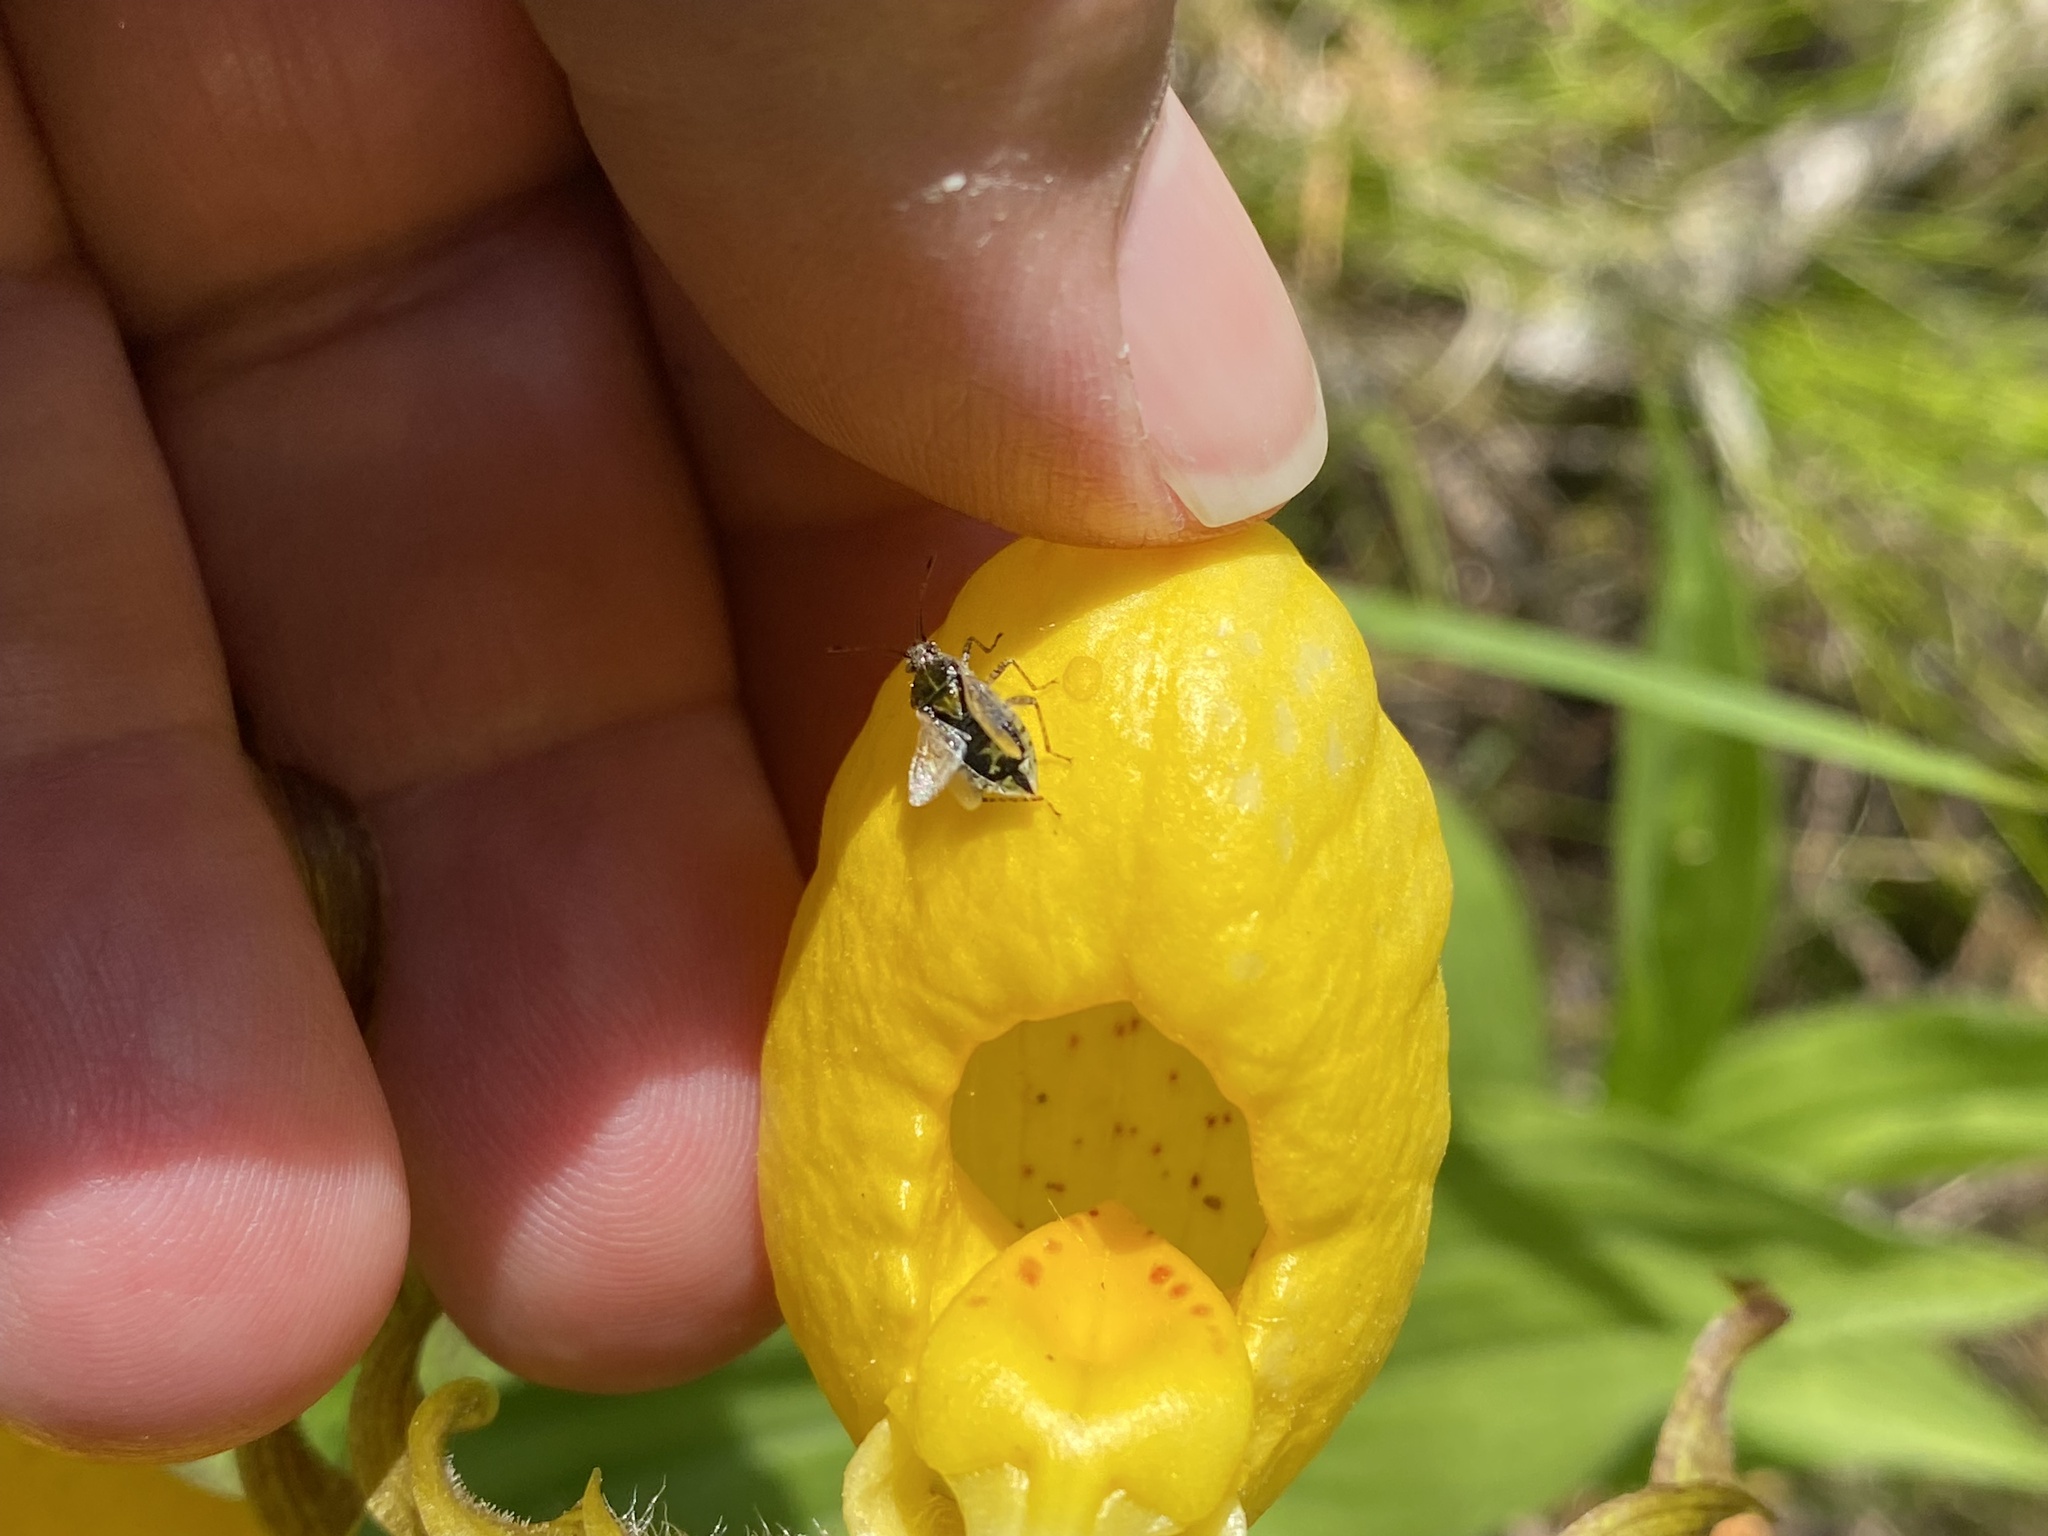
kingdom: Plantae
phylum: Tracheophyta
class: Liliopsida
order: Asparagales
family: Orchidaceae
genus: Cypripedium
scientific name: Cypripedium parviflorum
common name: American yellow lady's-slipper
